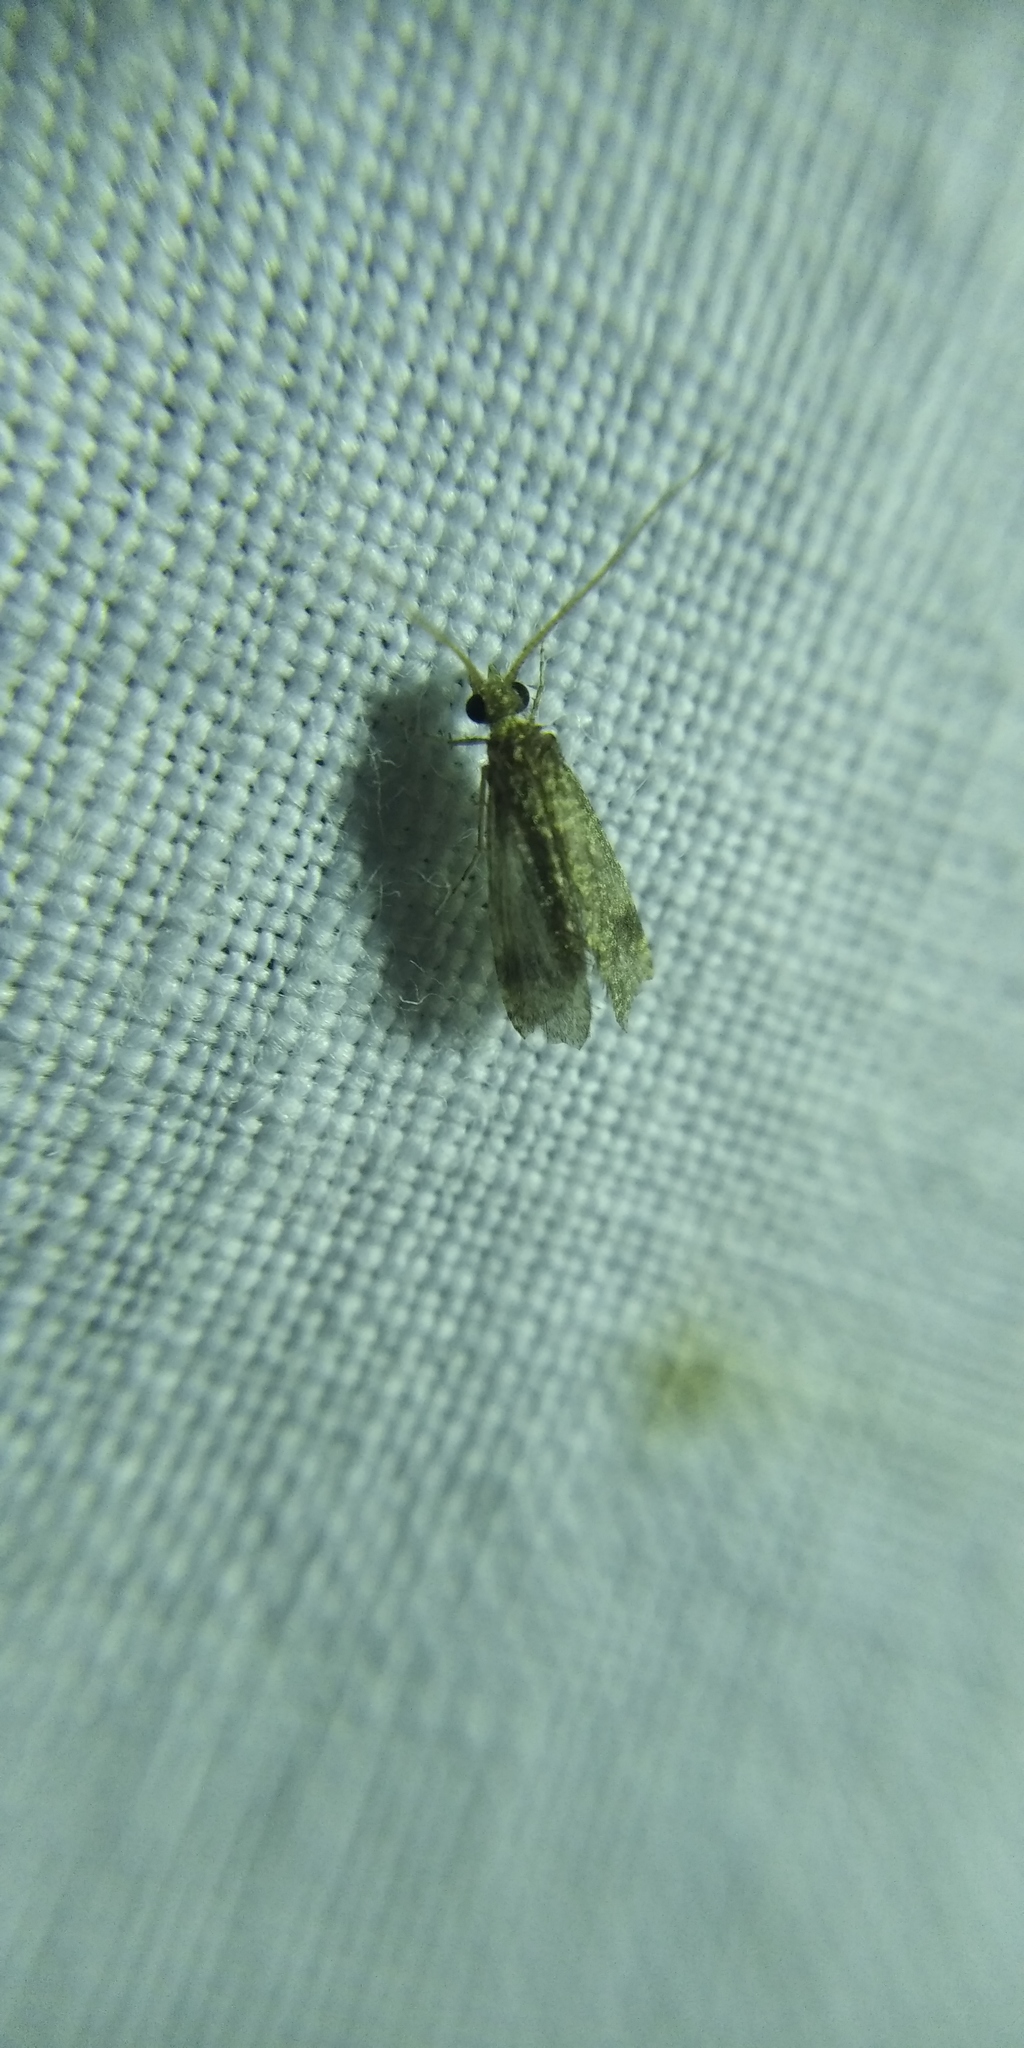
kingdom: Animalia
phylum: Arthropoda
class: Insecta
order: Trichoptera
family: Ecnomidae
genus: Ecnomus
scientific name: Ecnomus tenellus
